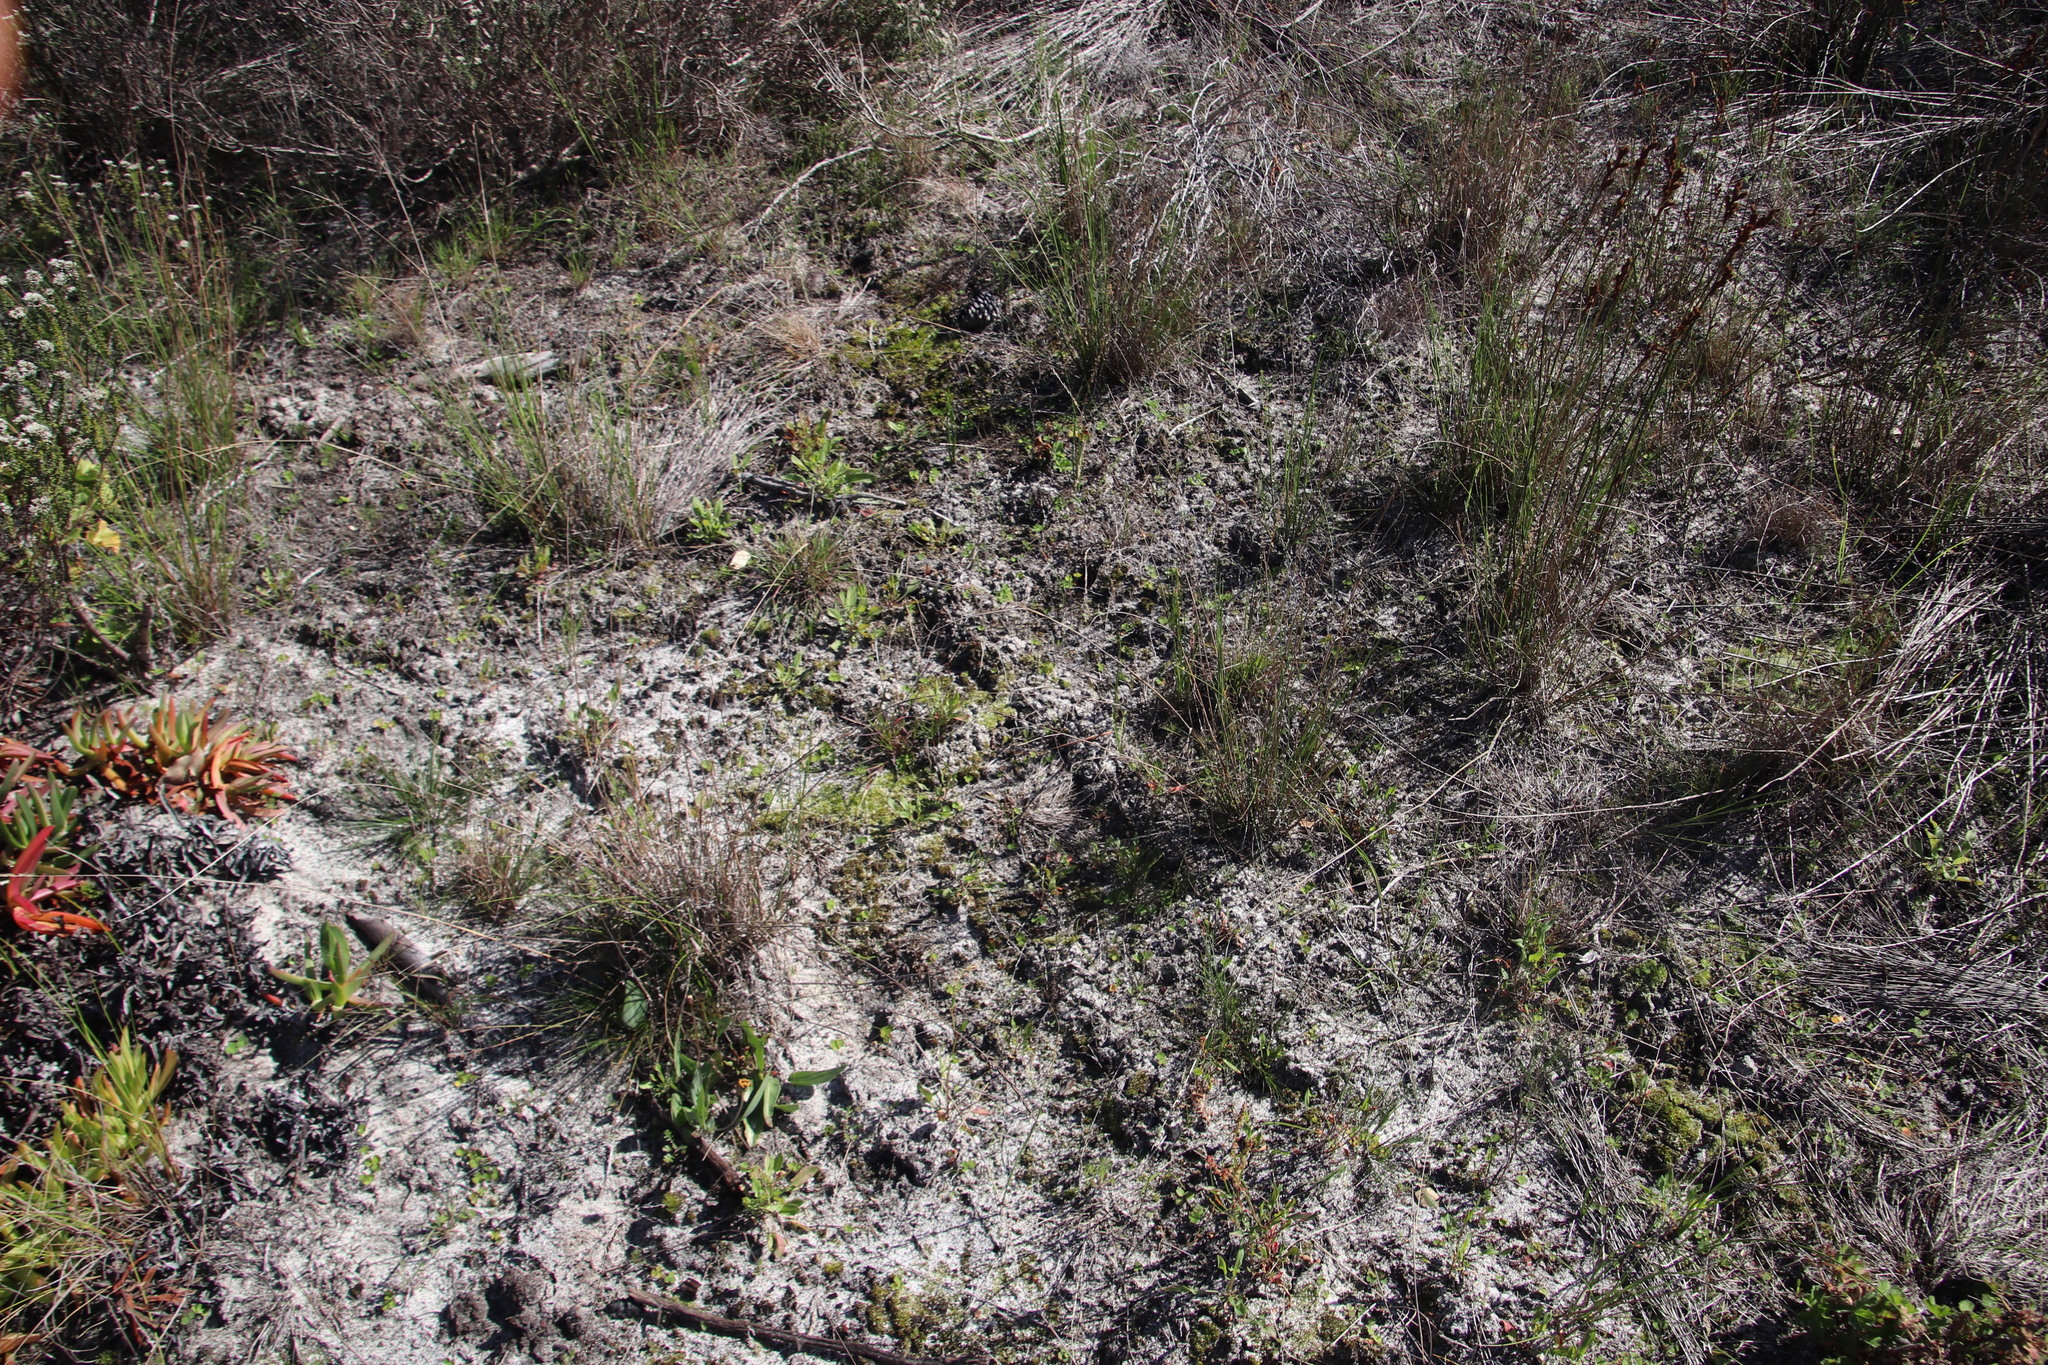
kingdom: Plantae
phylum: Tracheophyta
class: Liliopsida
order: Poales
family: Restionaceae
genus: Restio
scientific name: Restio bifurcus
